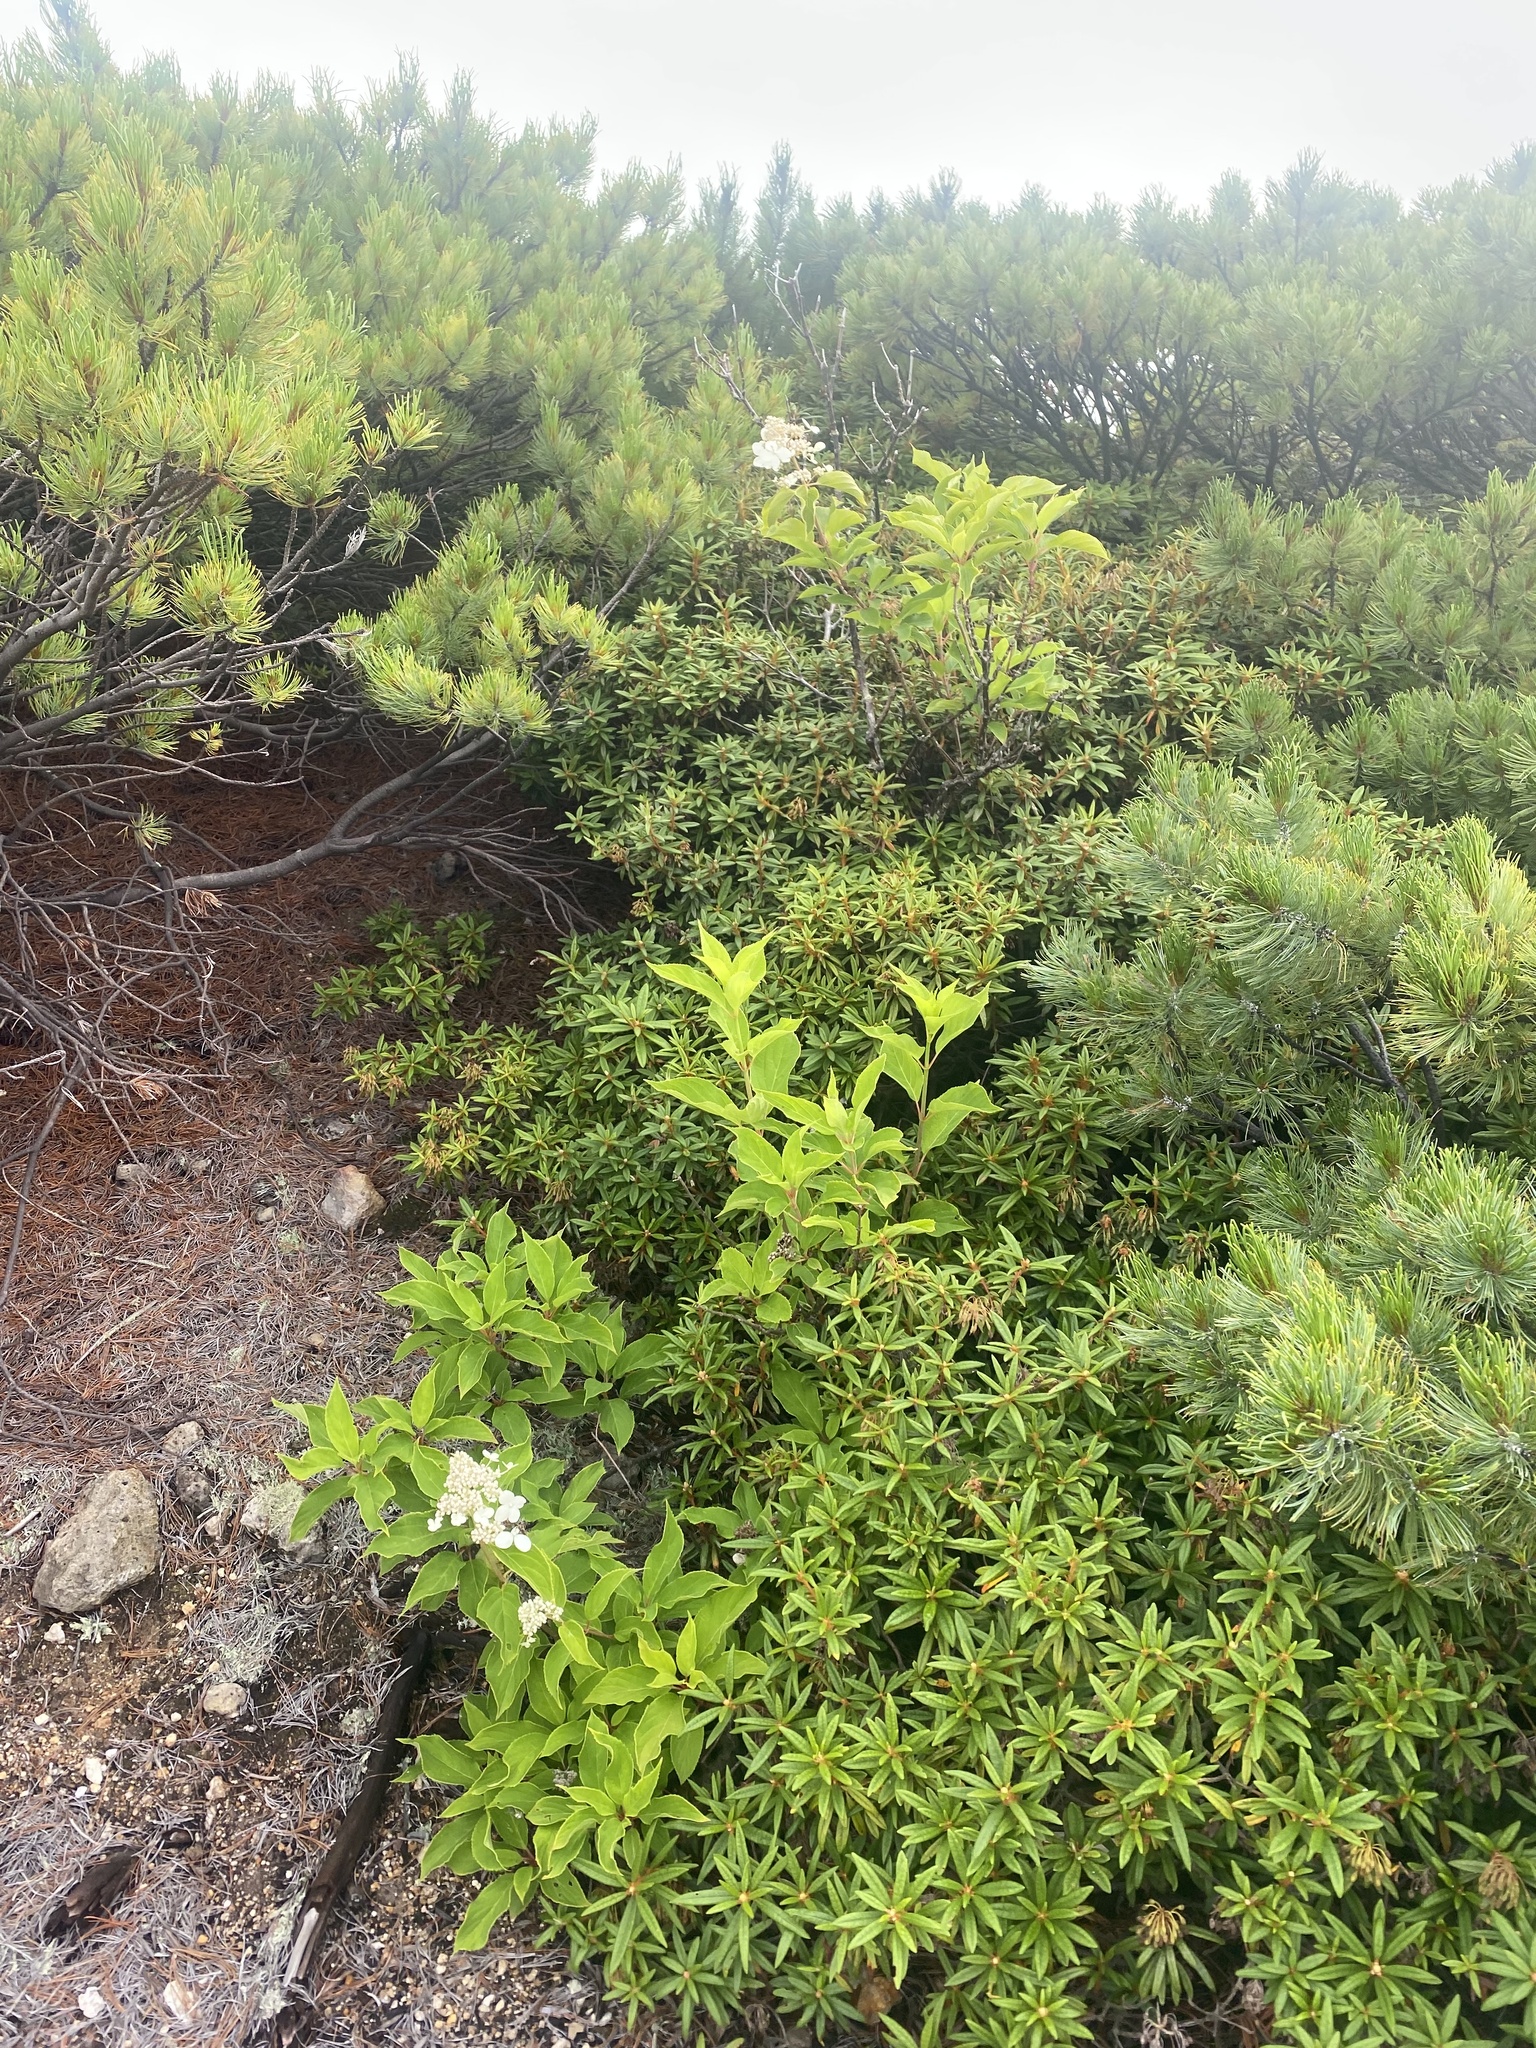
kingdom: Plantae
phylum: Tracheophyta
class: Magnoliopsida
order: Cornales
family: Hydrangeaceae
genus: Hydrangea
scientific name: Hydrangea paniculata
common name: Panicled hydrangea
